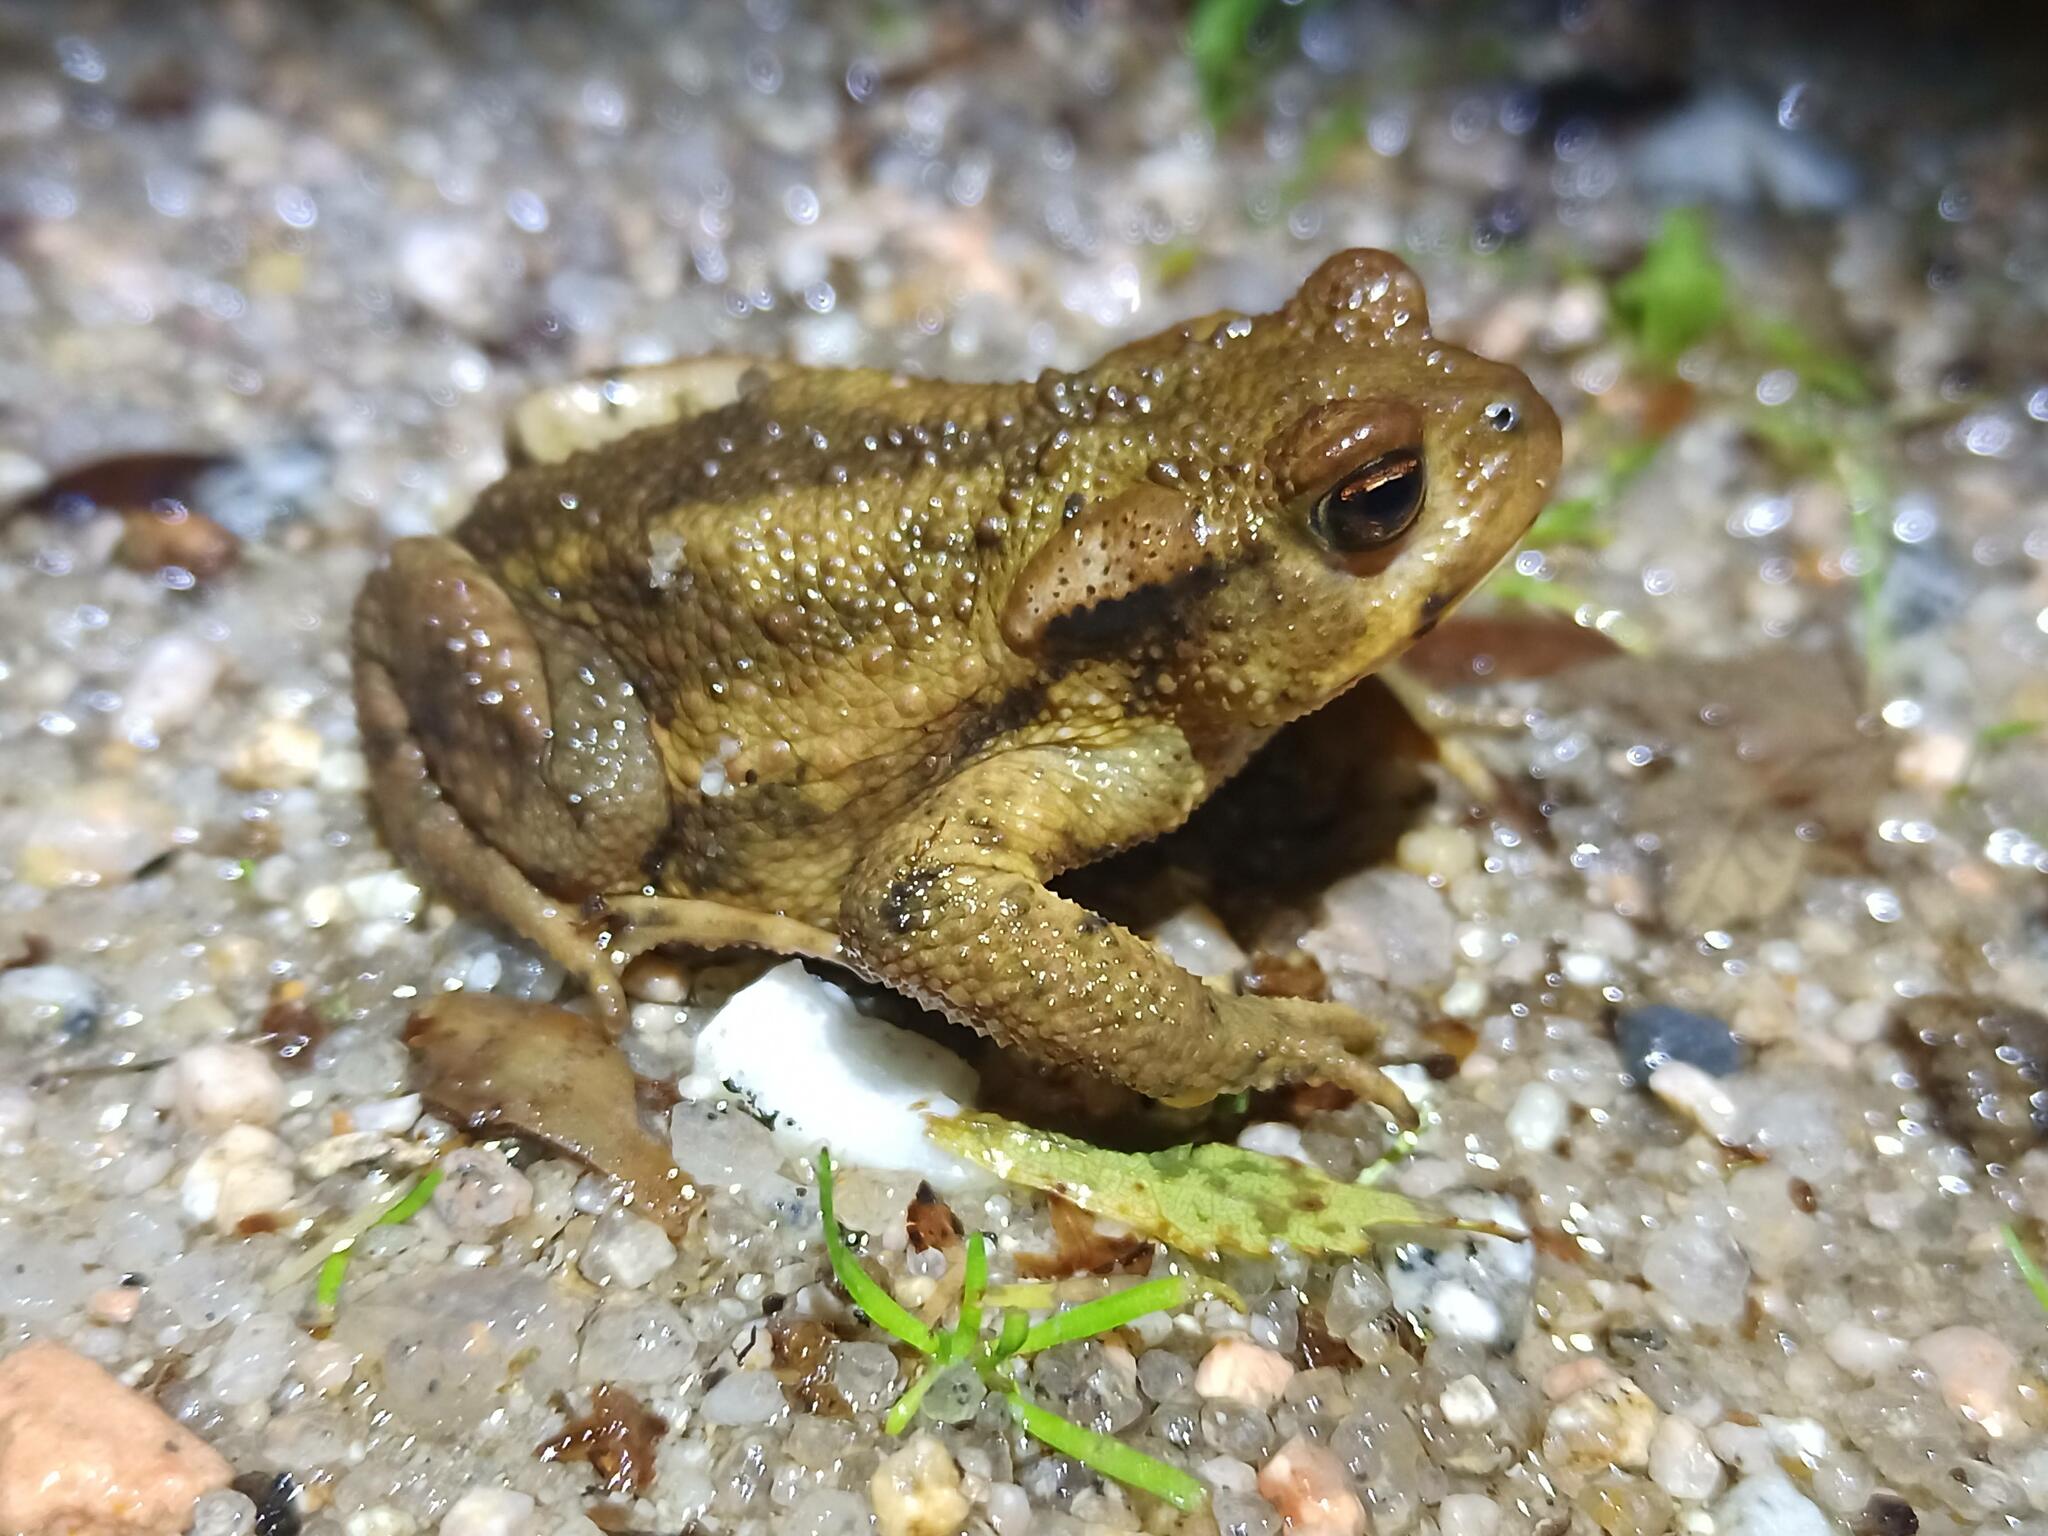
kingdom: Animalia
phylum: Chordata
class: Amphibia
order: Anura
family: Bufonidae
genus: Bufo
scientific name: Bufo spinosus
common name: Western common toad
